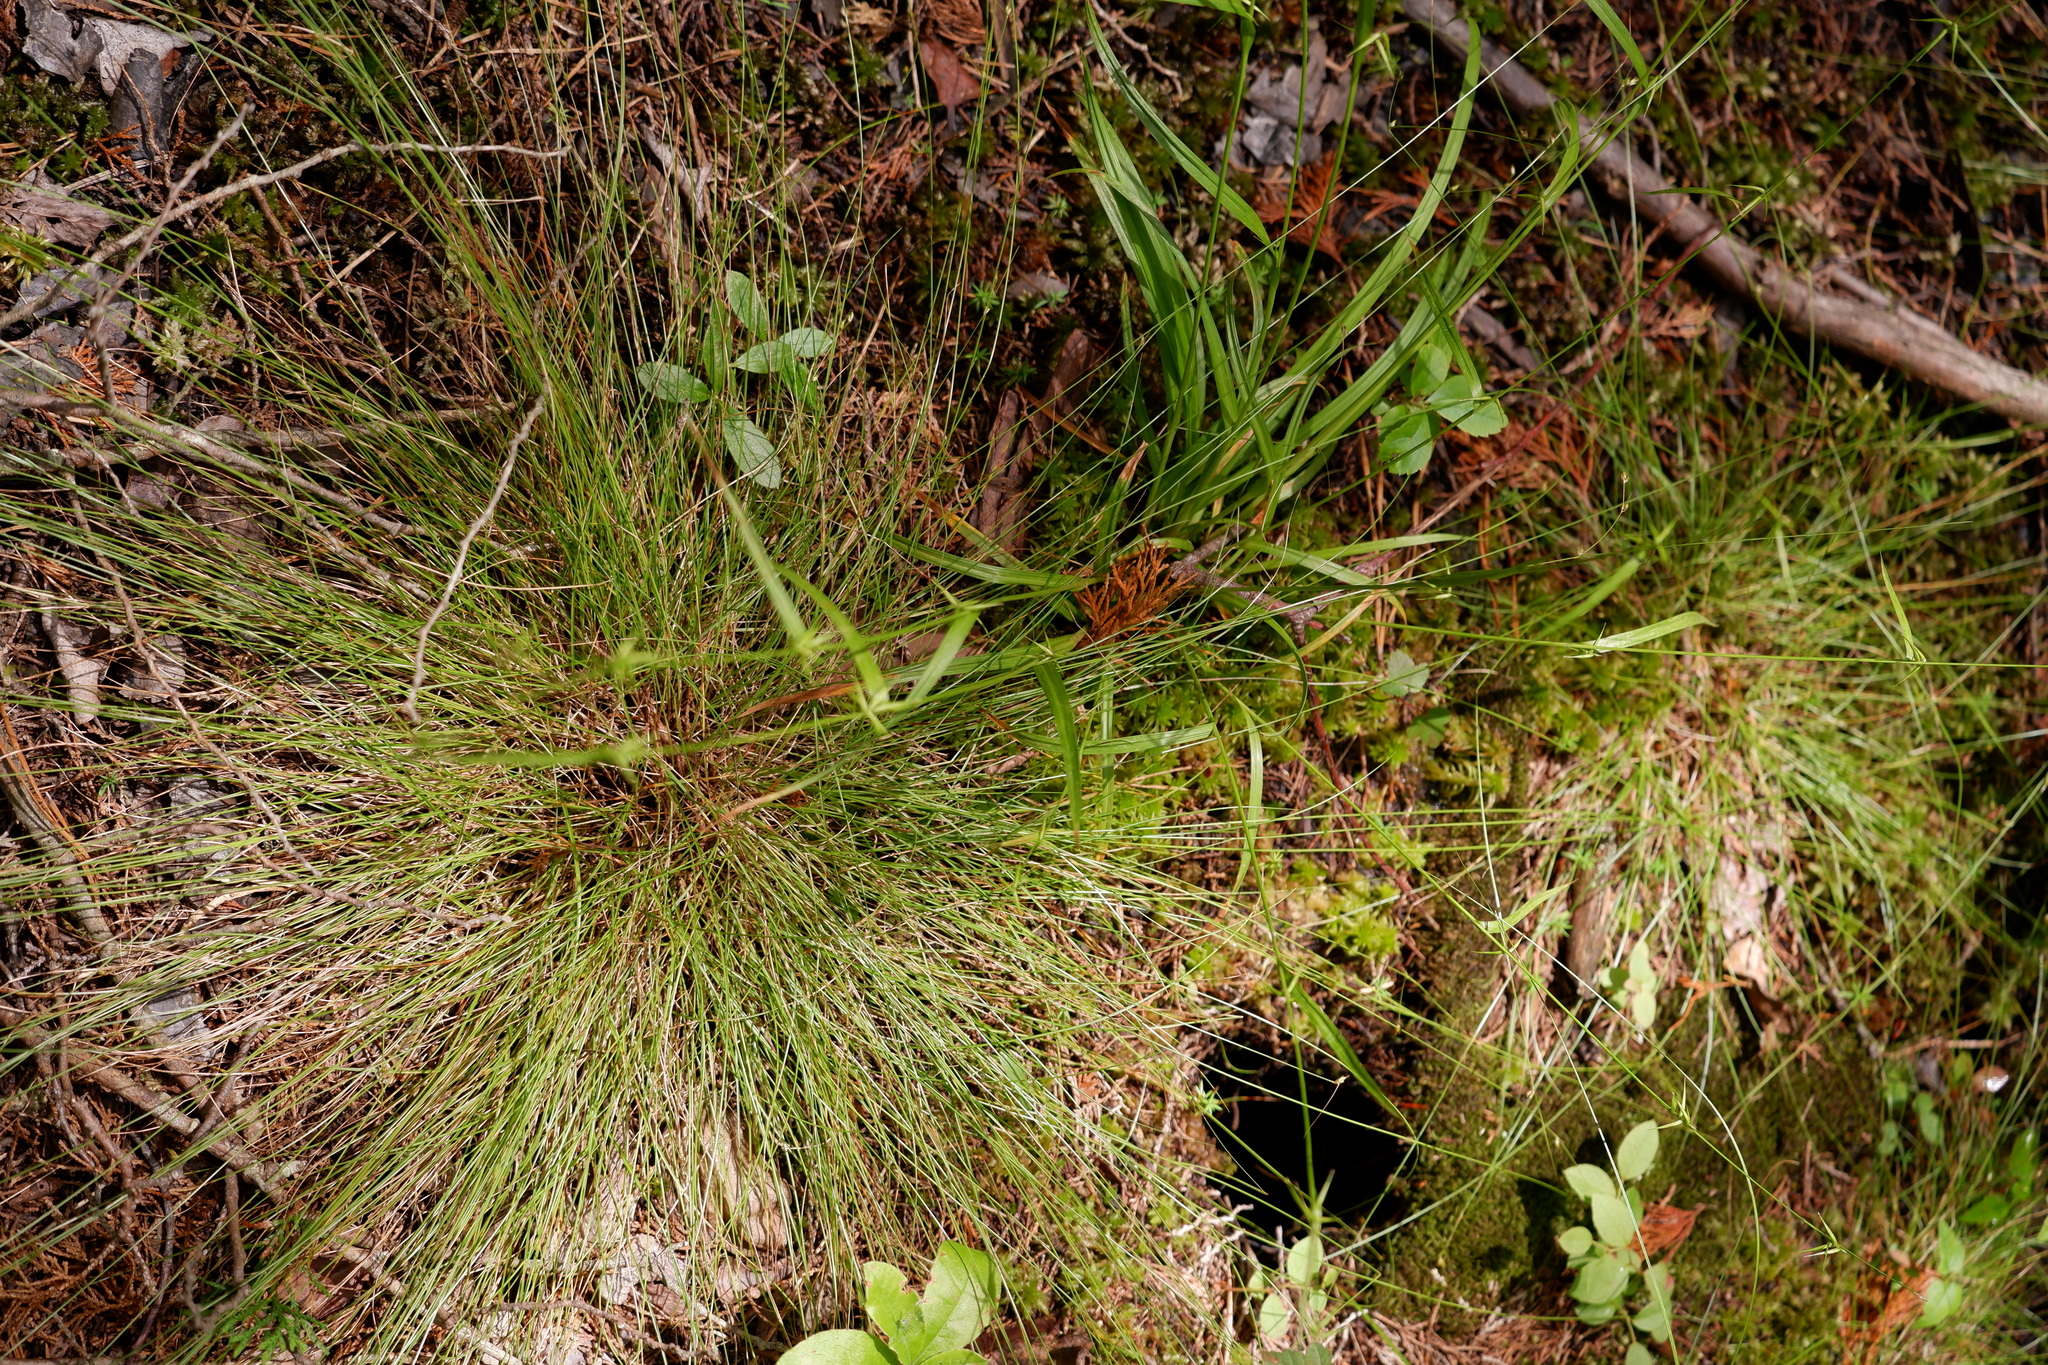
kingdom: Plantae
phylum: Tracheophyta
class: Liliopsida
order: Poales
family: Cyperaceae
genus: Carex
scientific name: Carex collinsii
